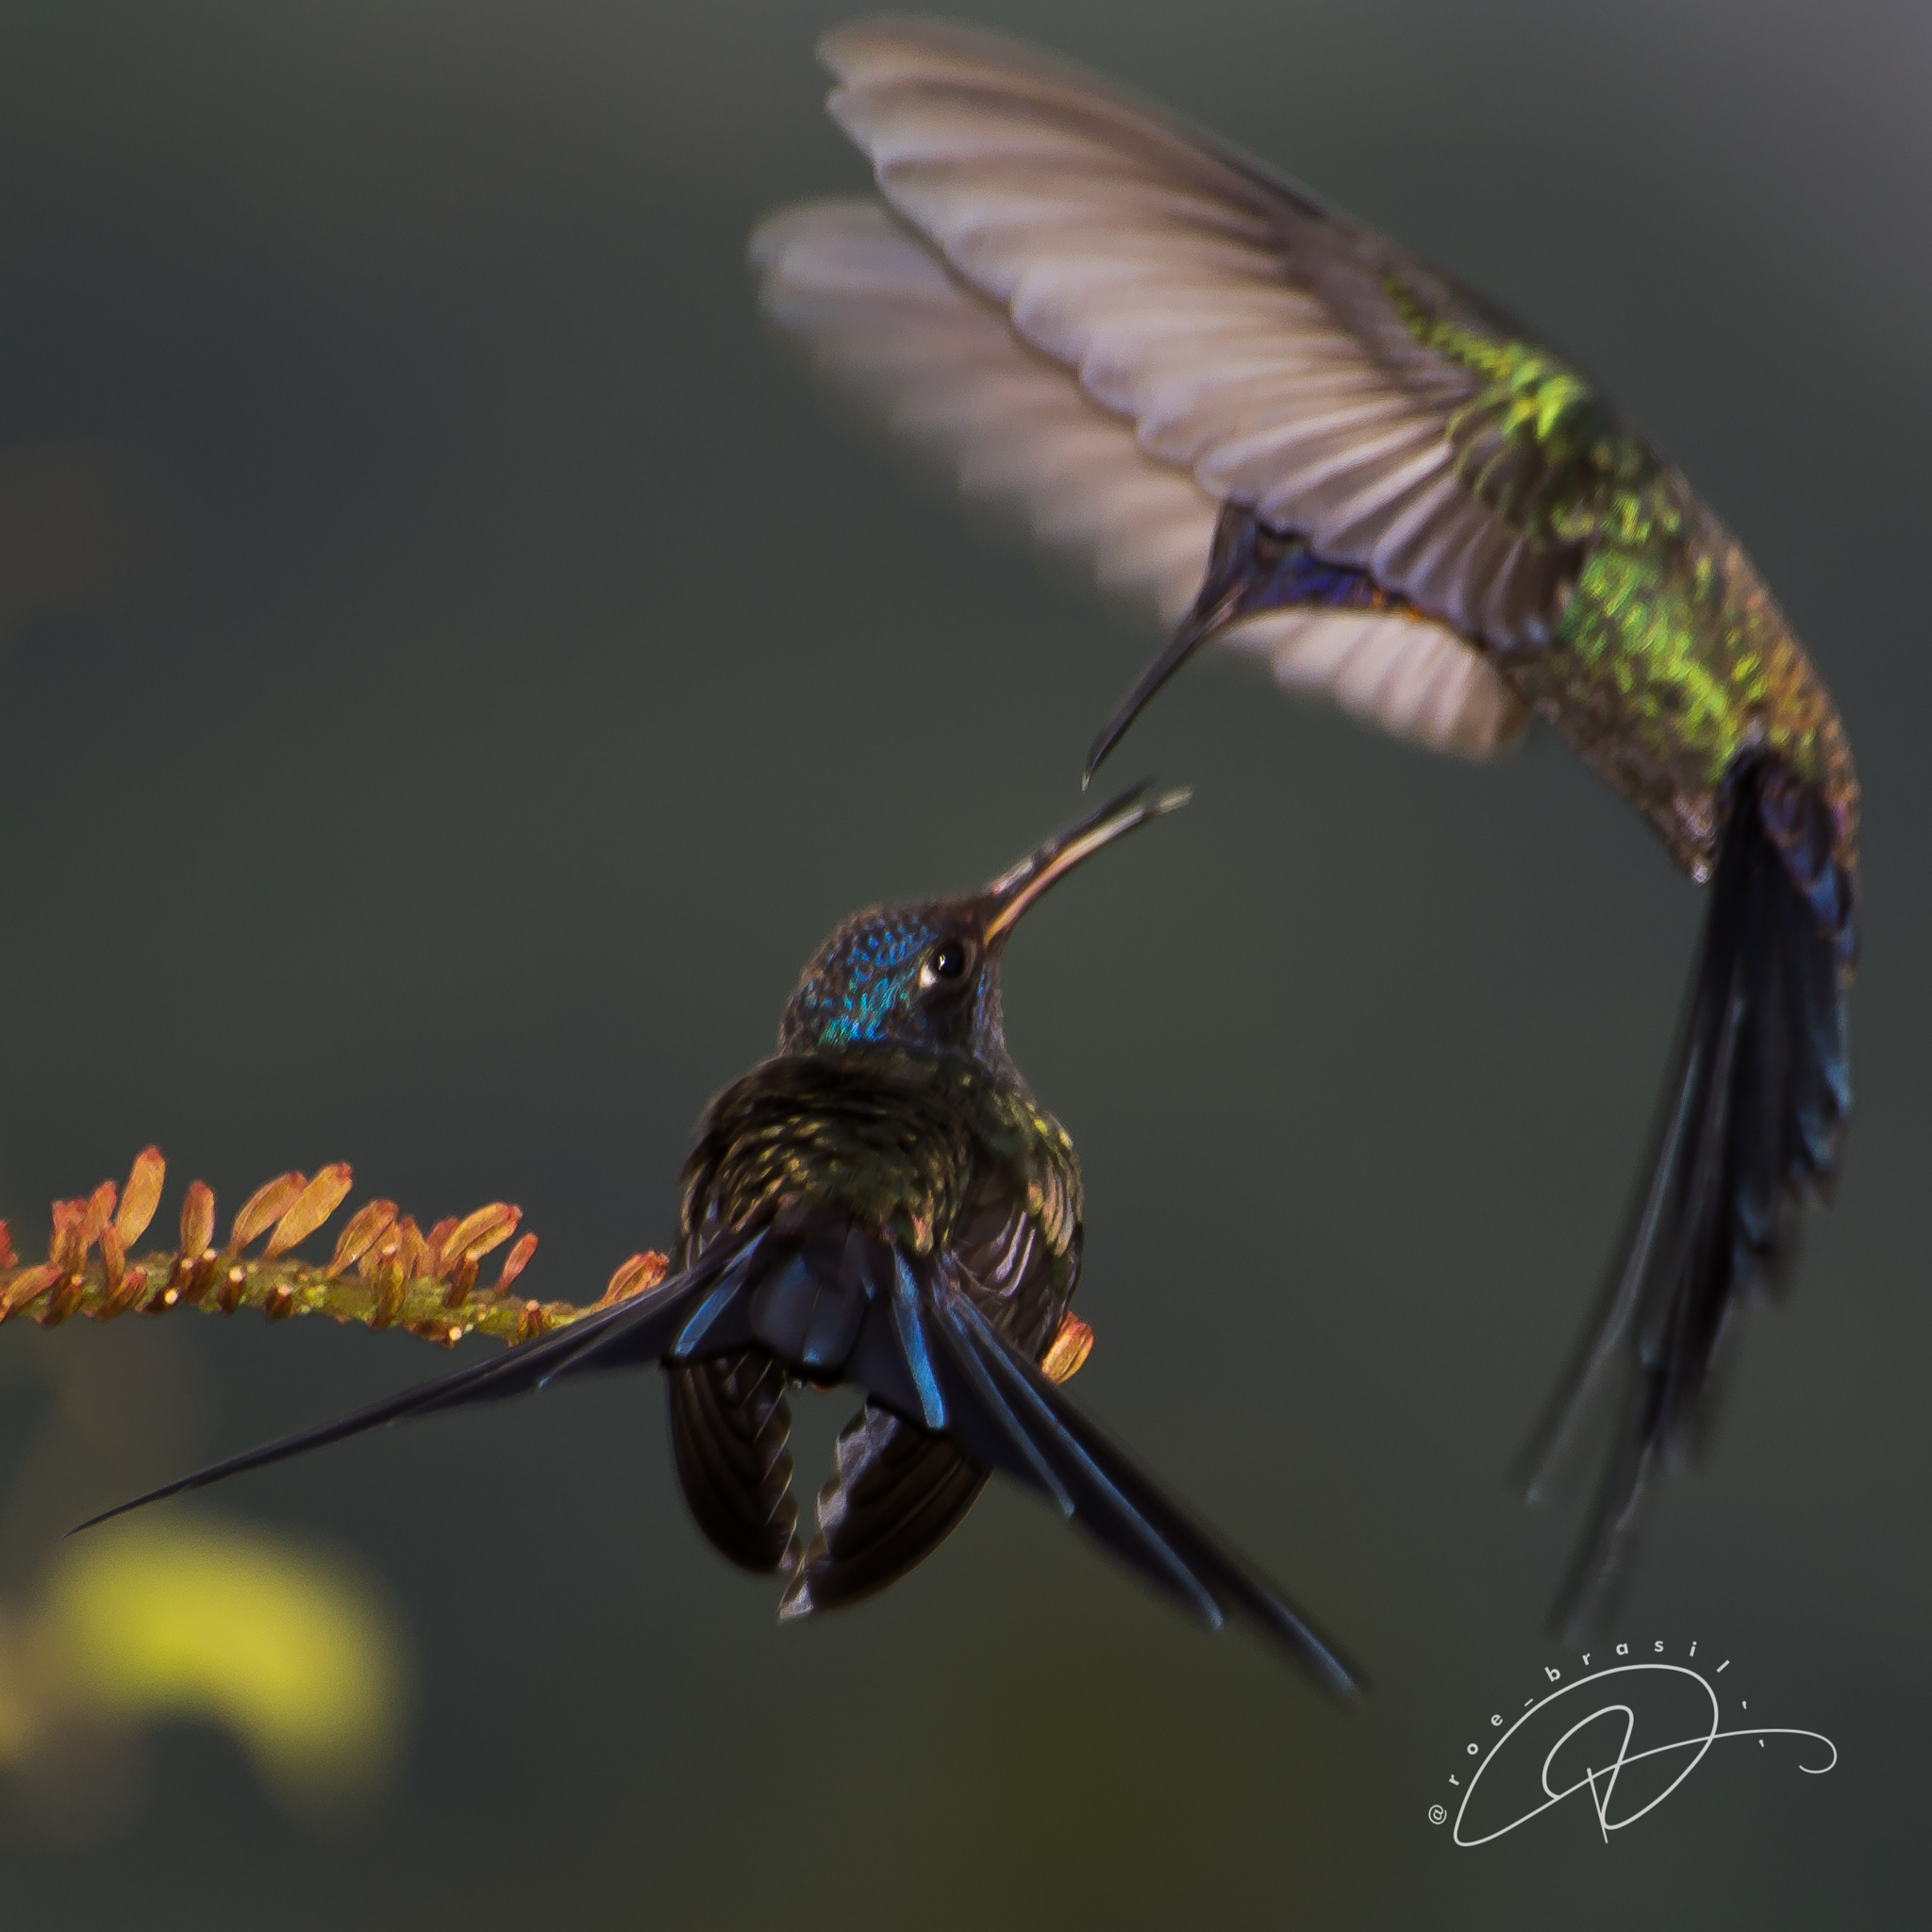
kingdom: Animalia
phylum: Chordata
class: Aves
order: Apodiformes
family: Trochilidae
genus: Eupetomena
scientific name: Eupetomena macroura
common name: Swallow-tailed hummingbird
